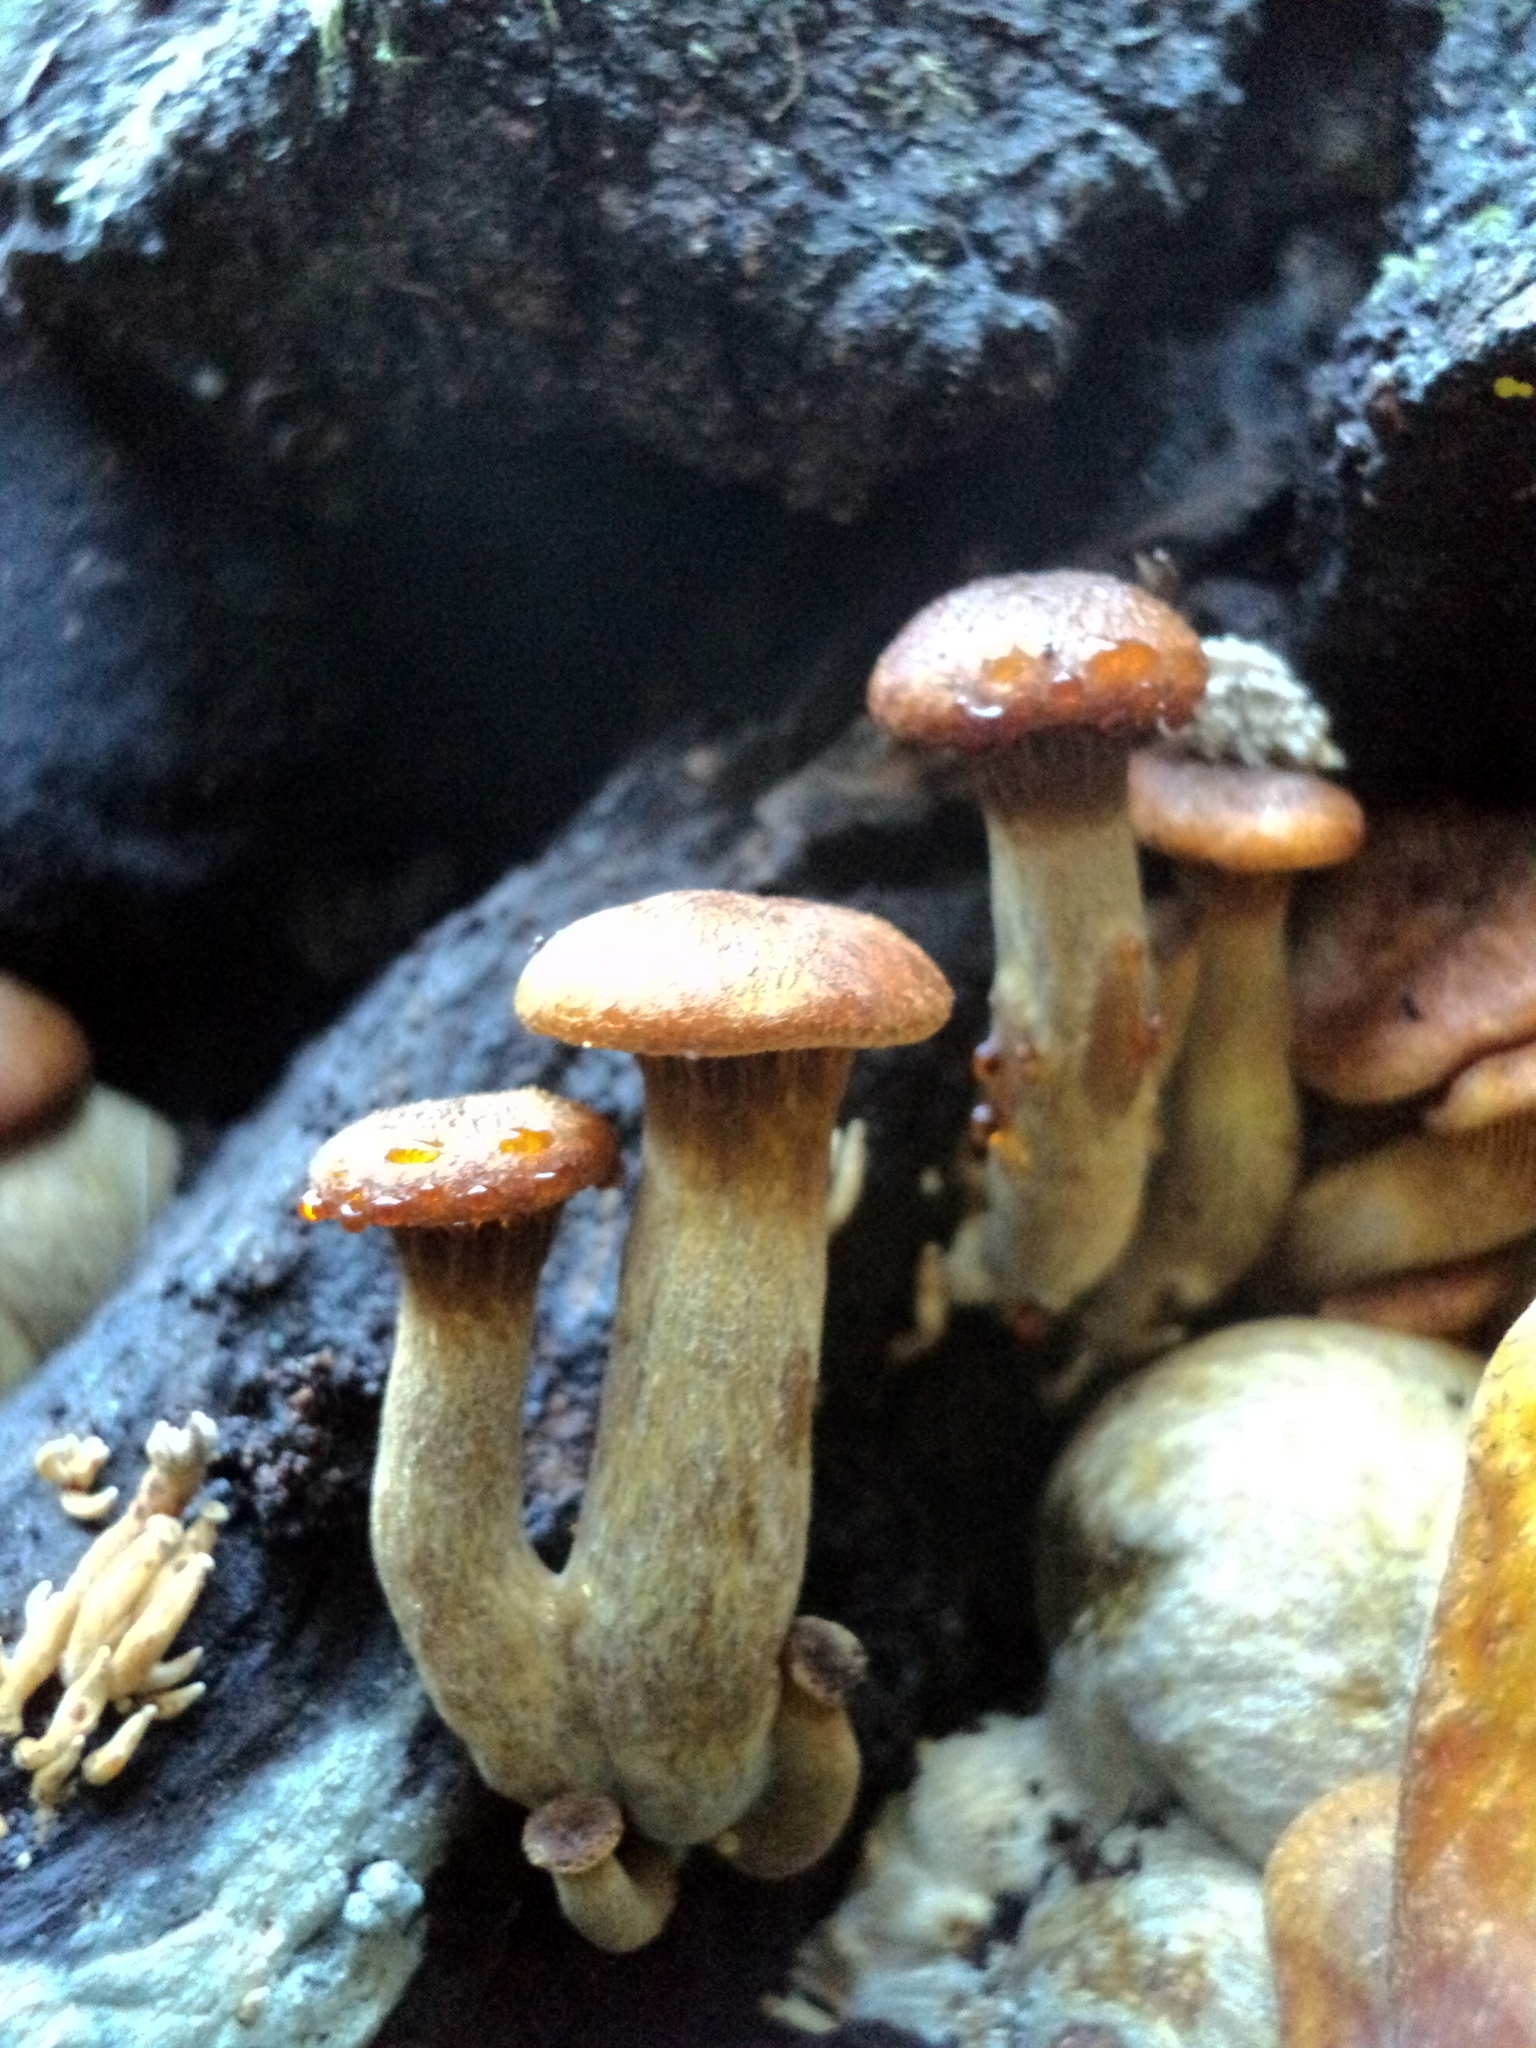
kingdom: Fungi
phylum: Basidiomycota
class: Agaricomycetes
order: Agaricales
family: Omphalotaceae
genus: Omphalotus
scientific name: Omphalotus olivascens
